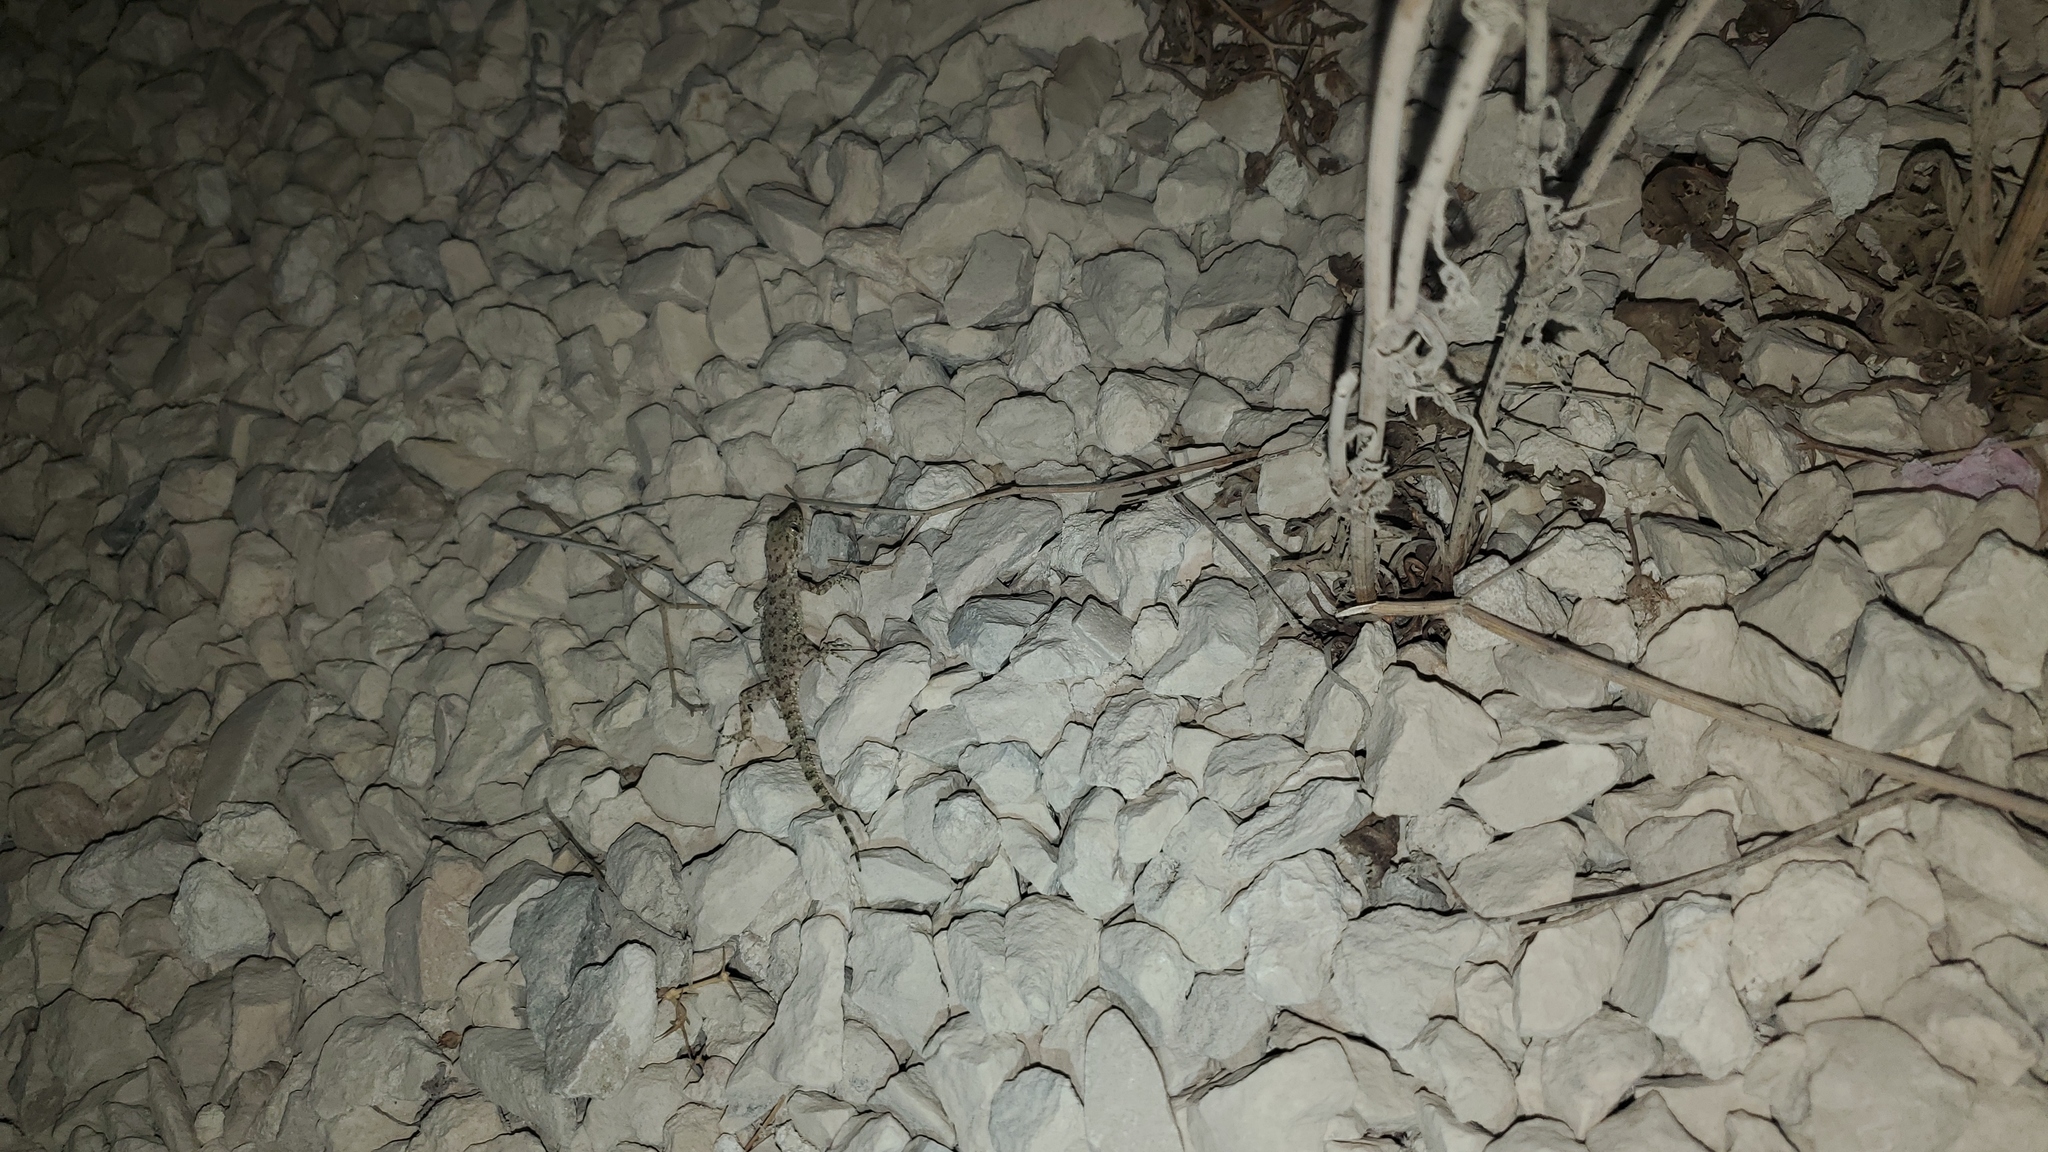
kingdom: Animalia
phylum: Chordata
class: Squamata
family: Gekkonidae
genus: Cyrtopodion
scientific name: Cyrtopodion scabrum
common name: Rough-tailed gecko
